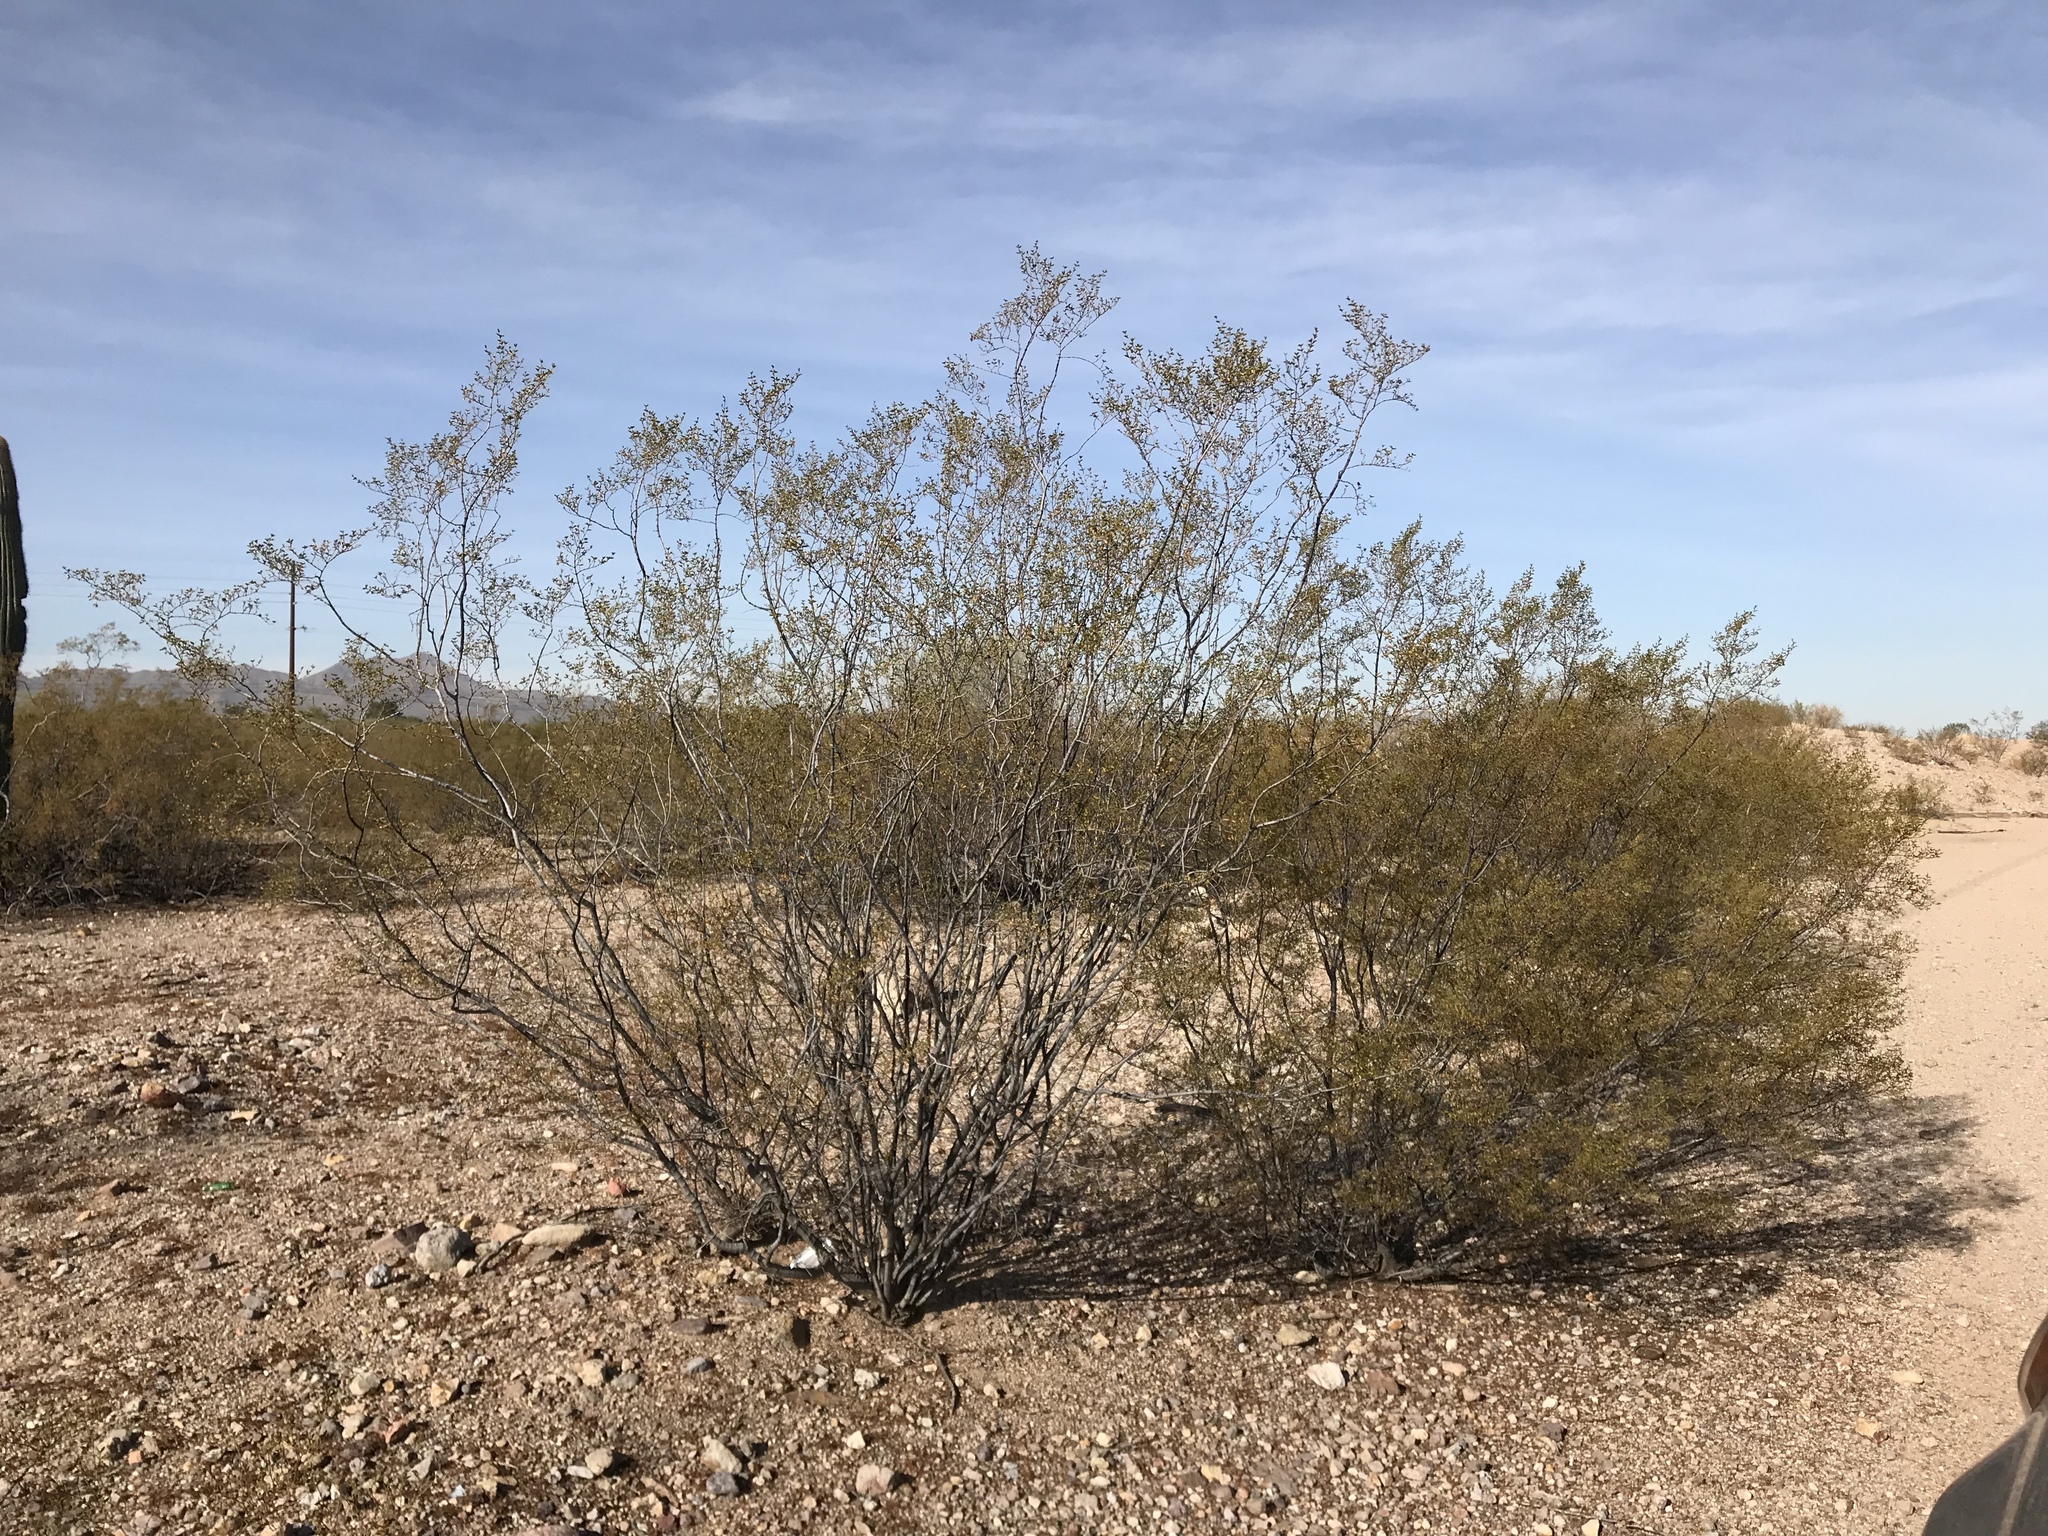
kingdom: Plantae
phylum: Tracheophyta
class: Magnoliopsida
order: Zygophyllales
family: Zygophyllaceae
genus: Larrea
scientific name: Larrea tridentata
